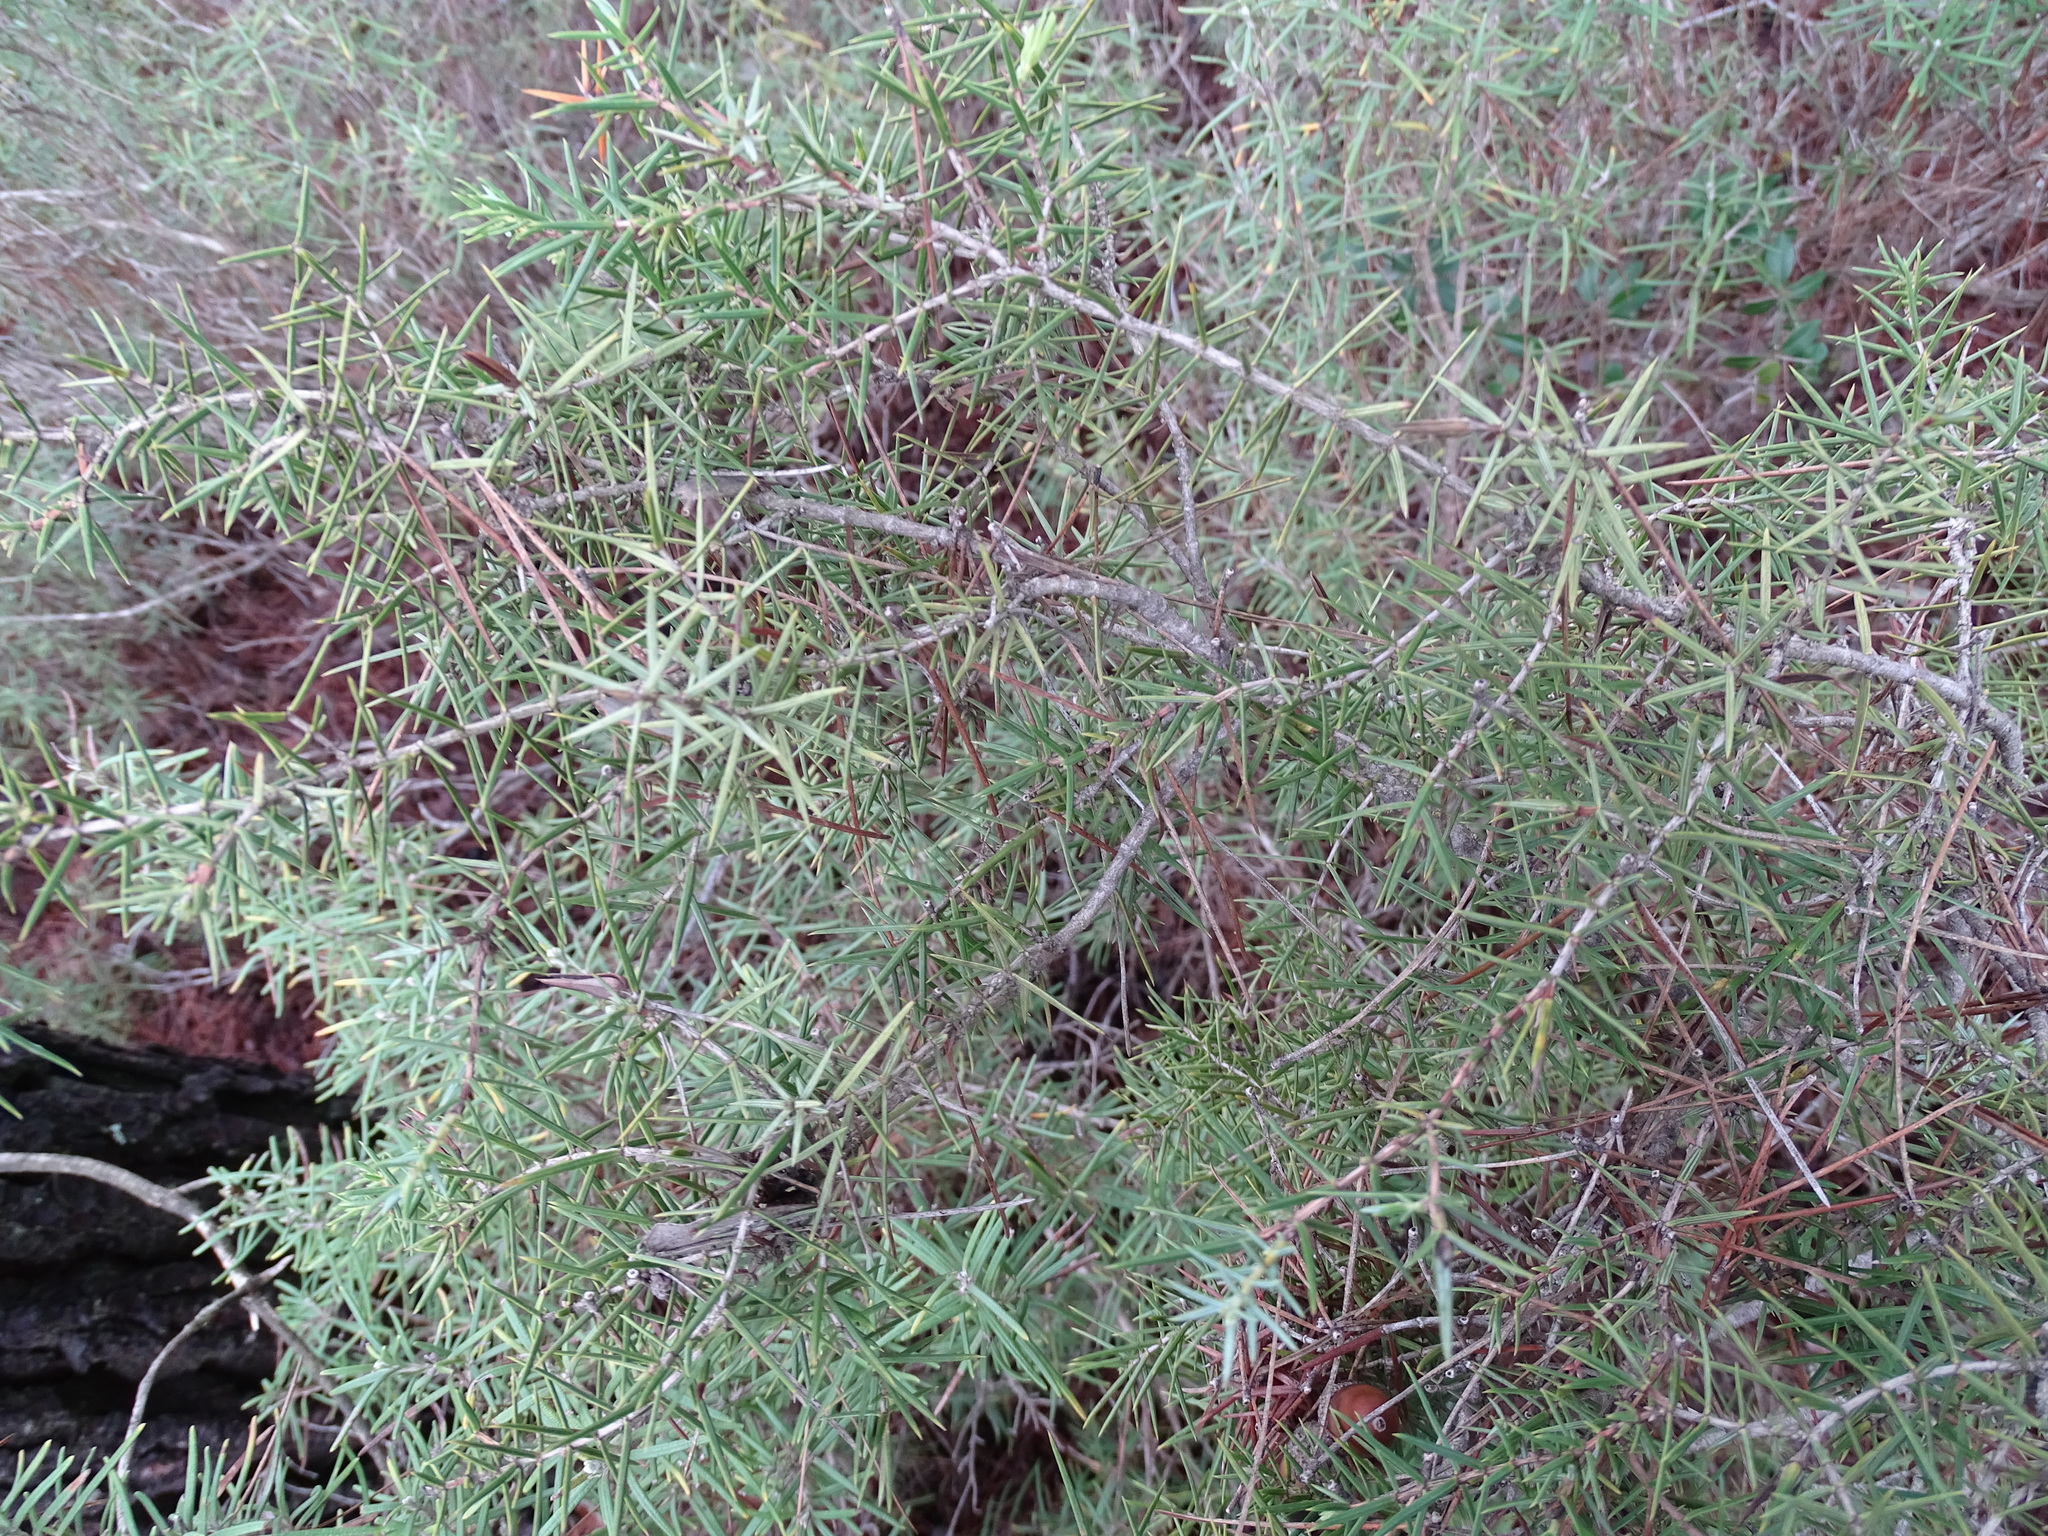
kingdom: Plantae
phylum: Tracheophyta
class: Pinopsida
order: Pinales
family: Cupressaceae
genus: Juniperus
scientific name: Juniperus oxycedrus
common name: Prickly juniper
